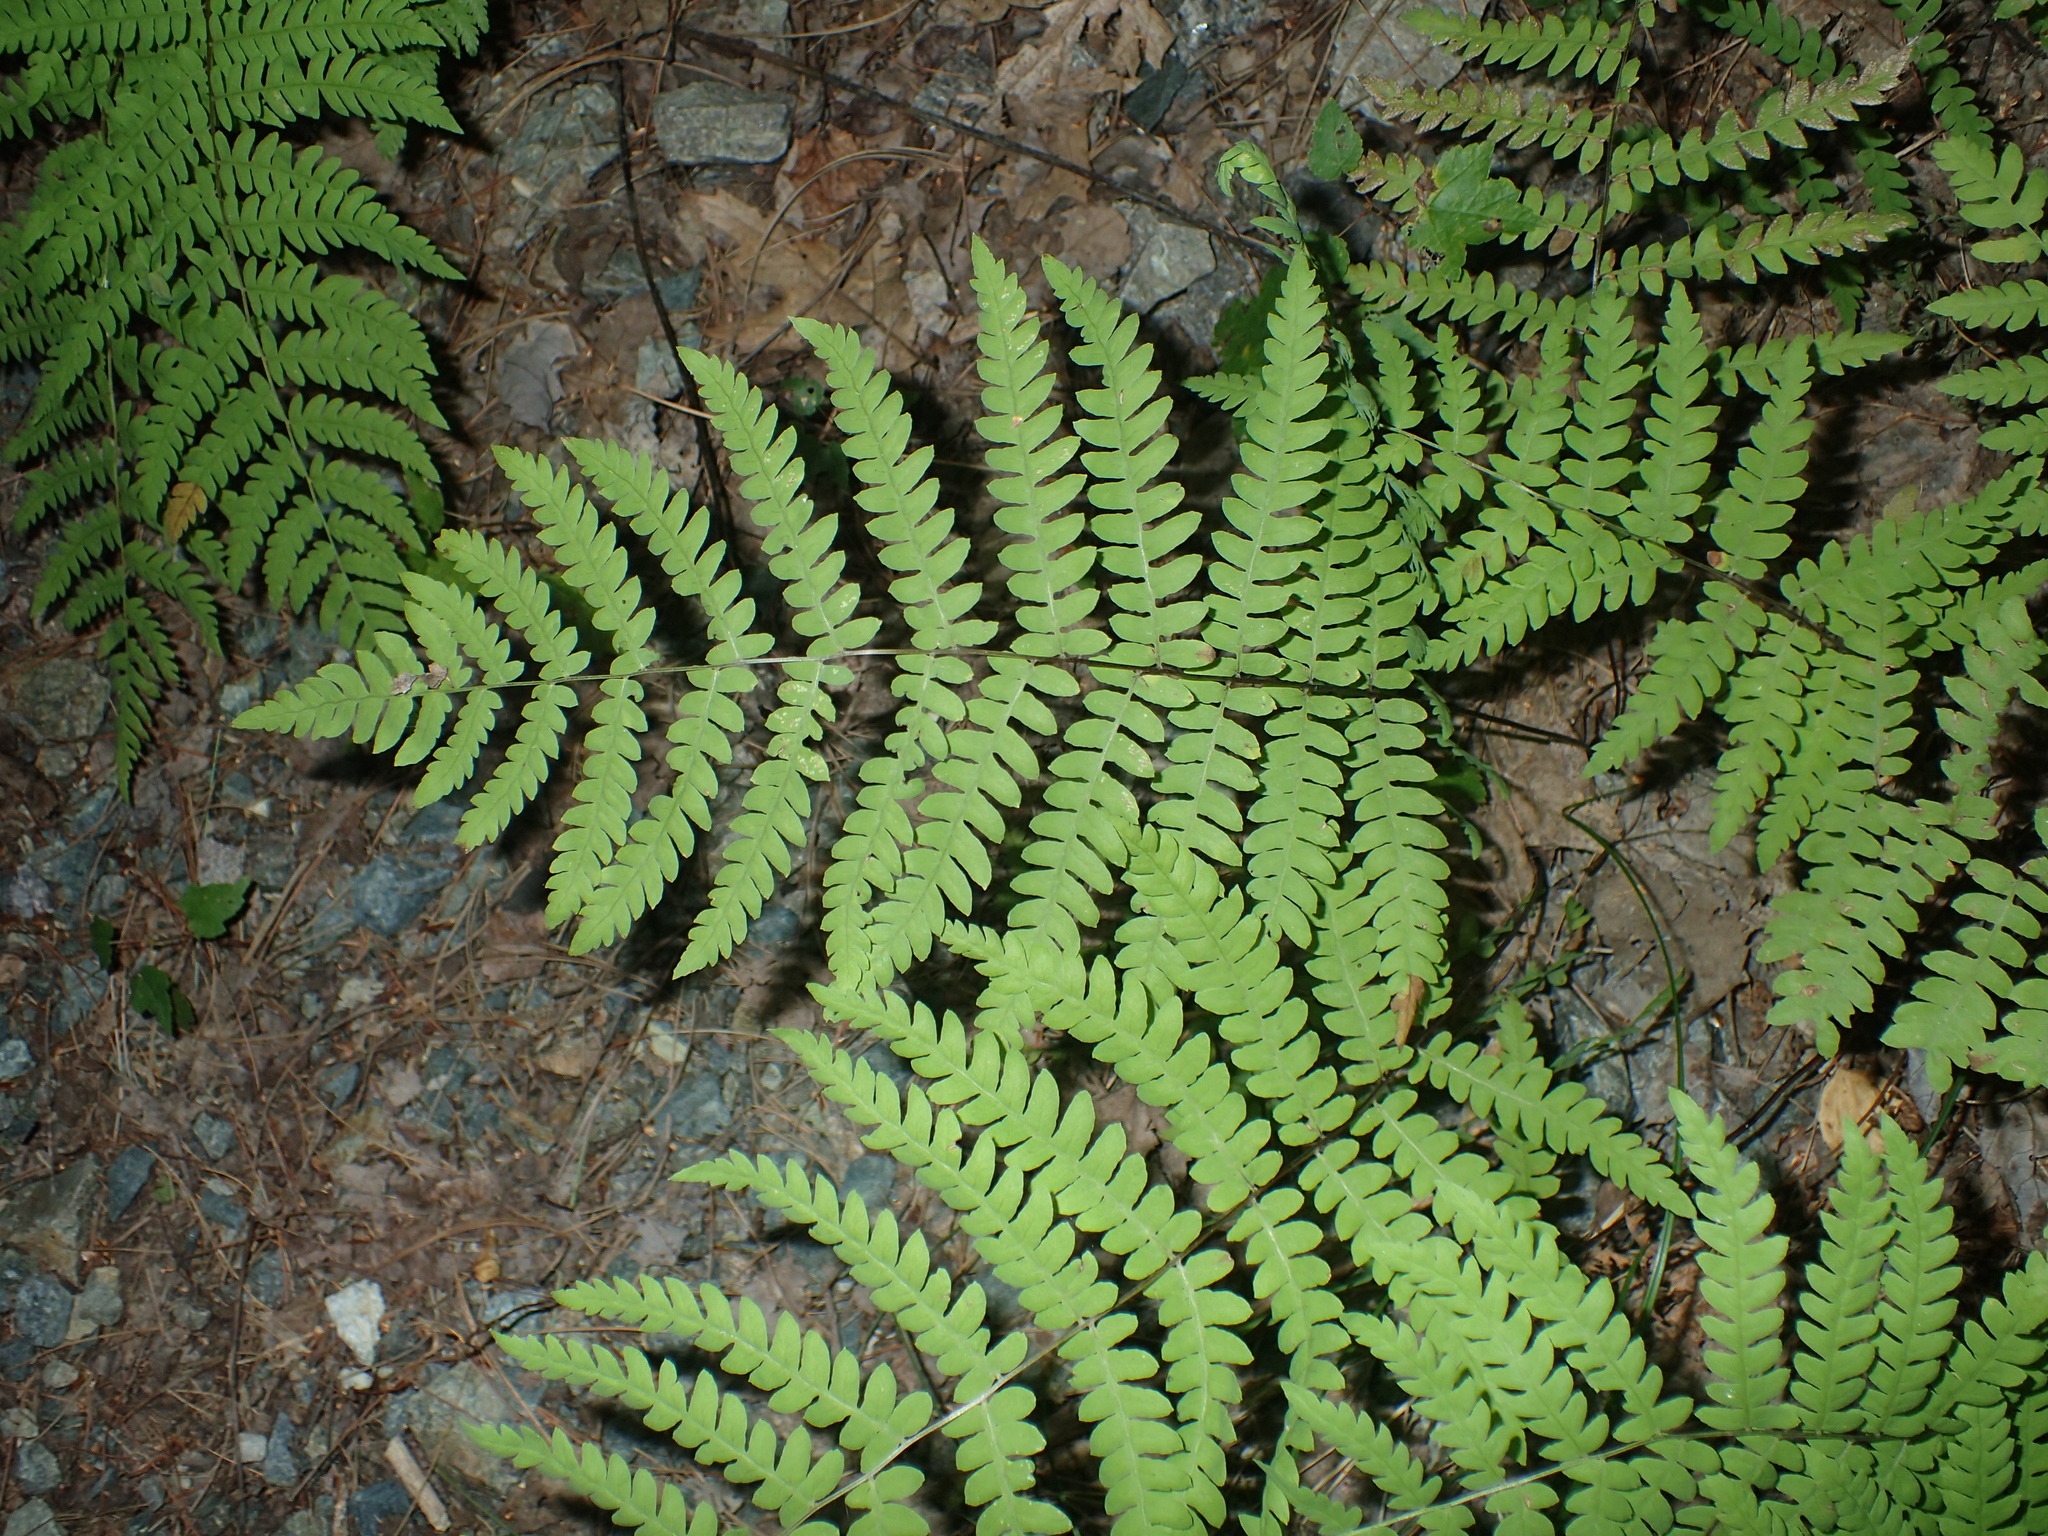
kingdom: Plantae
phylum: Tracheophyta
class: Polypodiopsida
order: Polypodiales
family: Thelypteridaceae
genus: Thelypteris
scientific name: Thelypteris palustris
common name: Marsh fern
